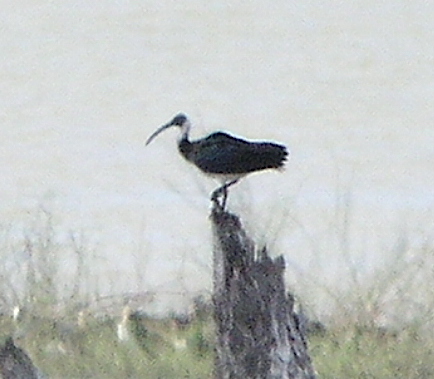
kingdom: Animalia
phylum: Chordata
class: Aves
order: Pelecaniformes
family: Threskiornithidae
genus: Threskiornis
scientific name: Threskiornis spinicollis
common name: Straw-necked ibis
